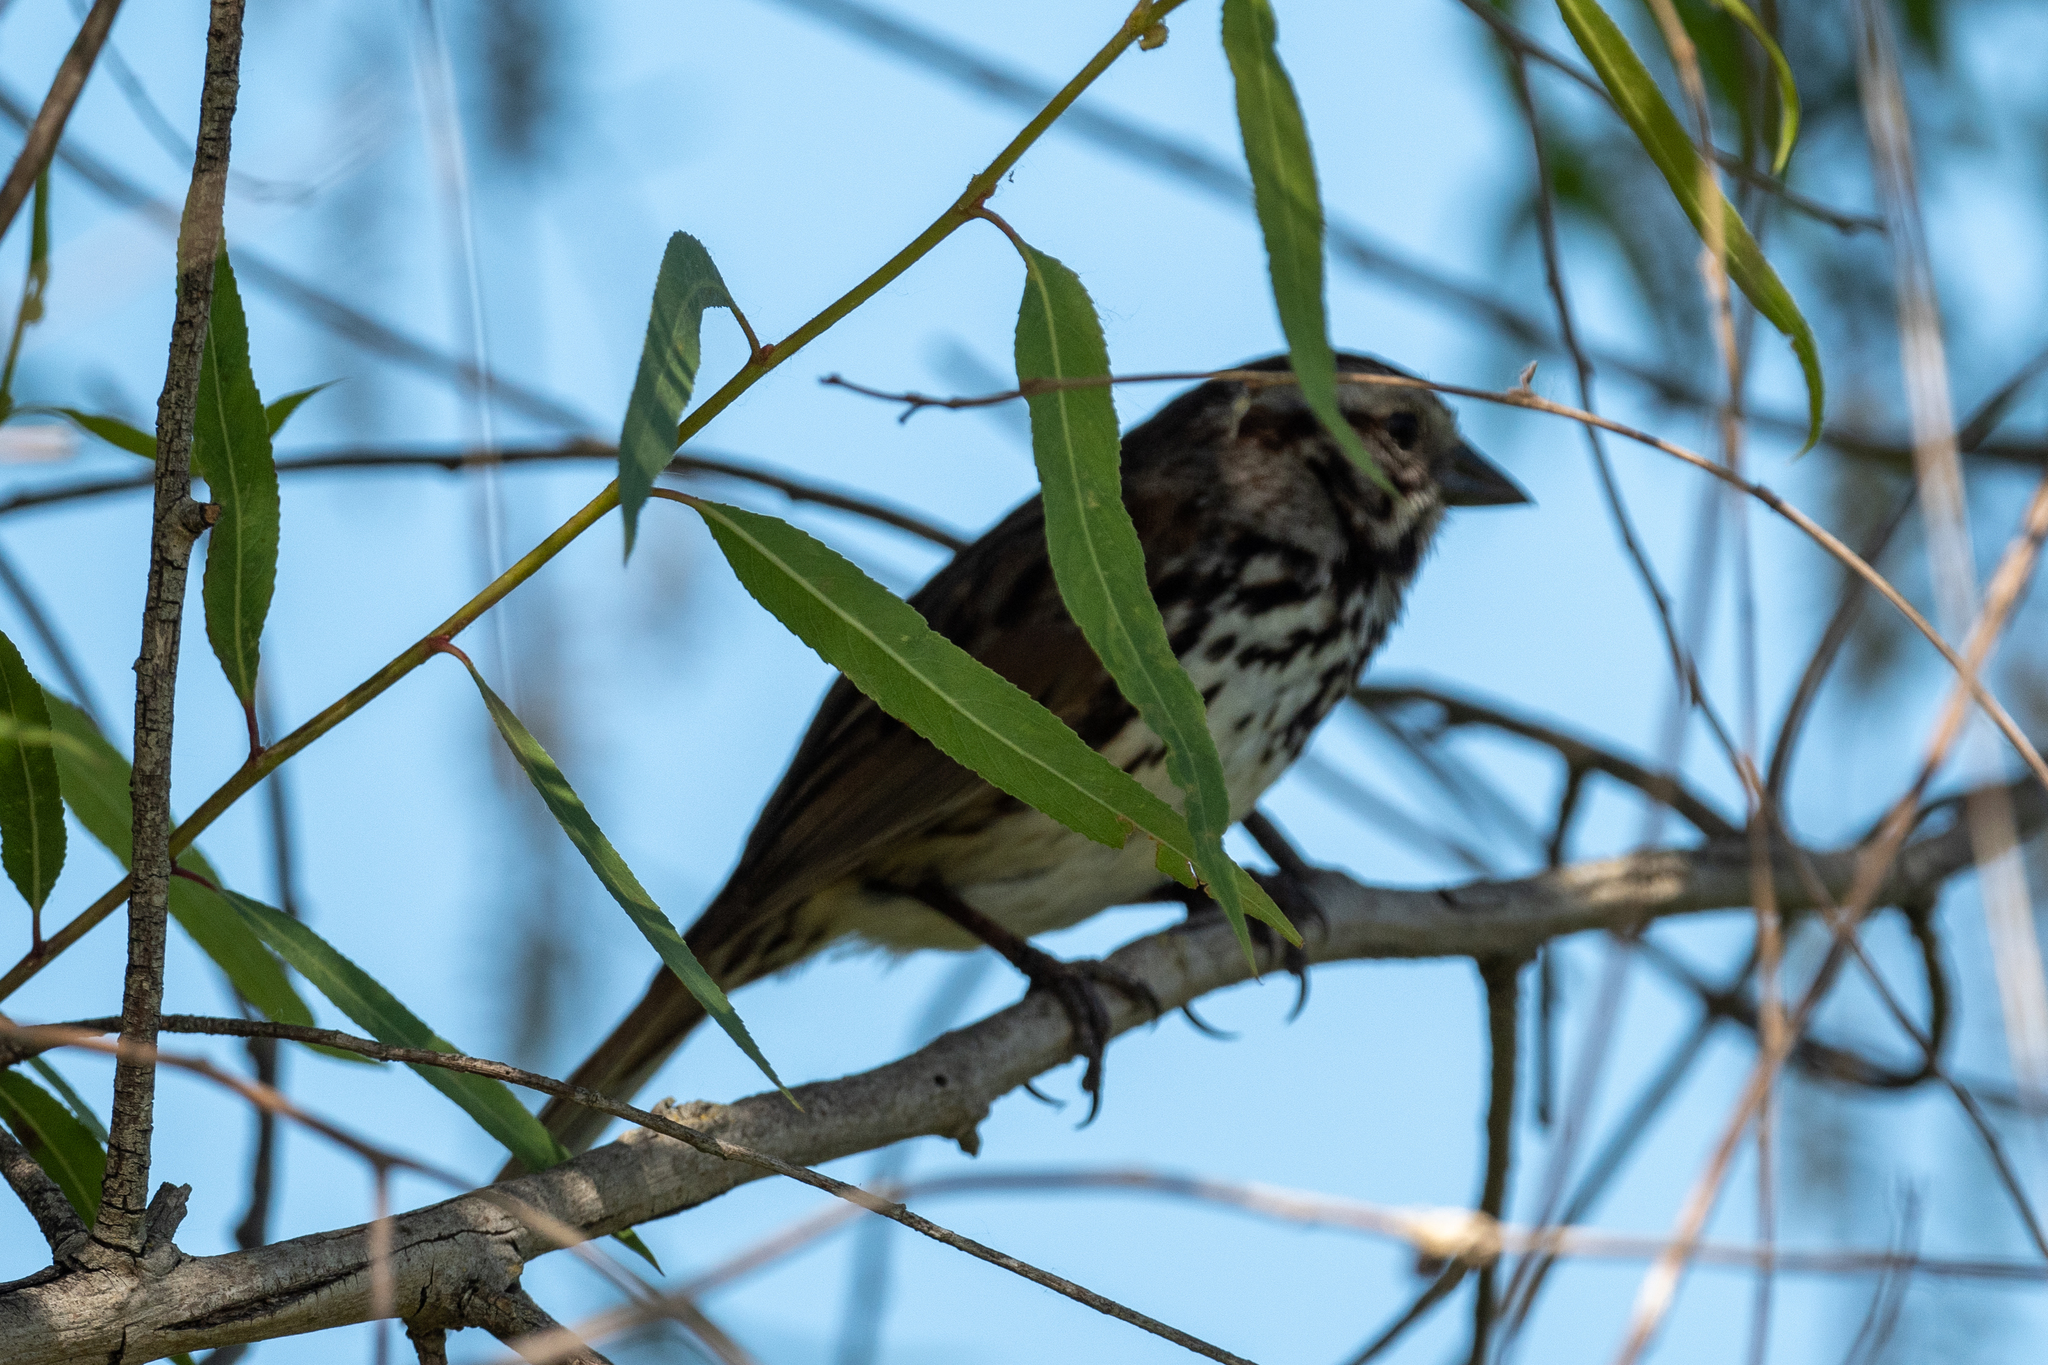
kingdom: Animalia
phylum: Chordata
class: Aves
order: Passeriformes
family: Passerellidae
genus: Melospiza
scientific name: Melospiza melodia
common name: Song sparrow
